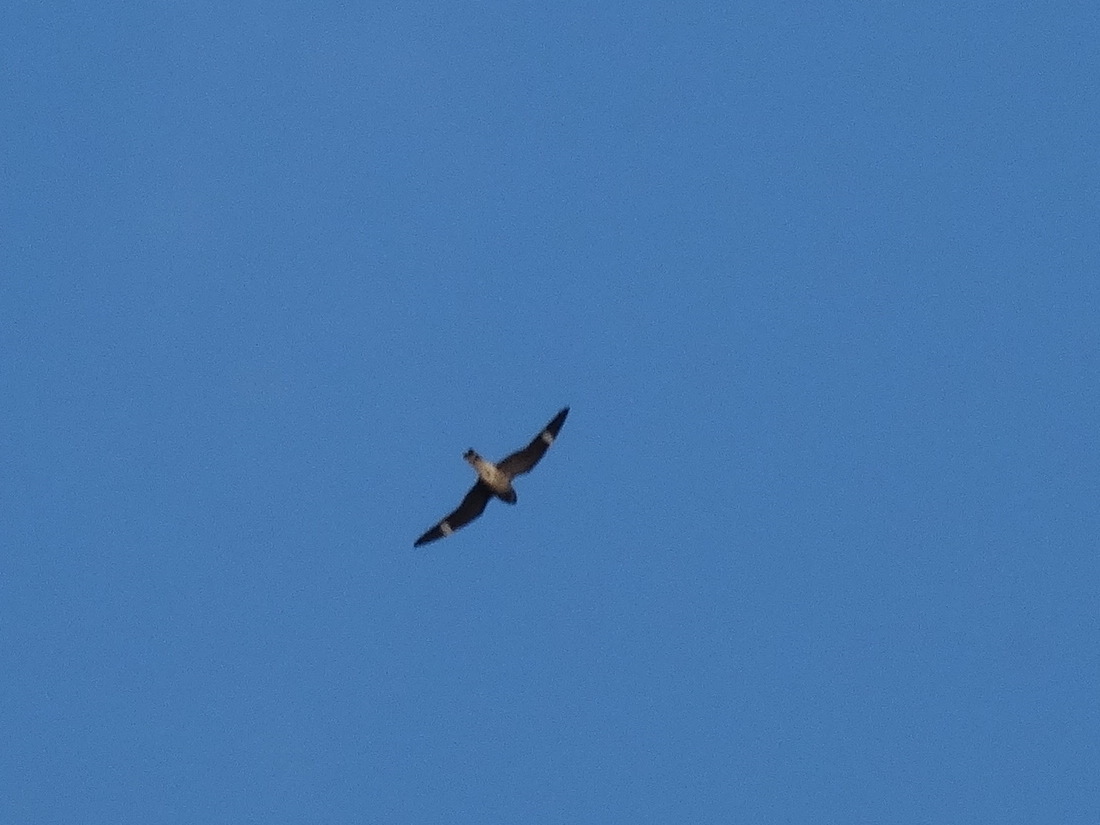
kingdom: Animalia
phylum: Chordata
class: Aves
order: Caprimulgiformes
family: Caprimulgidae
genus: Chordeiles
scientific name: Chordeiles minor
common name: Common nighthawk
